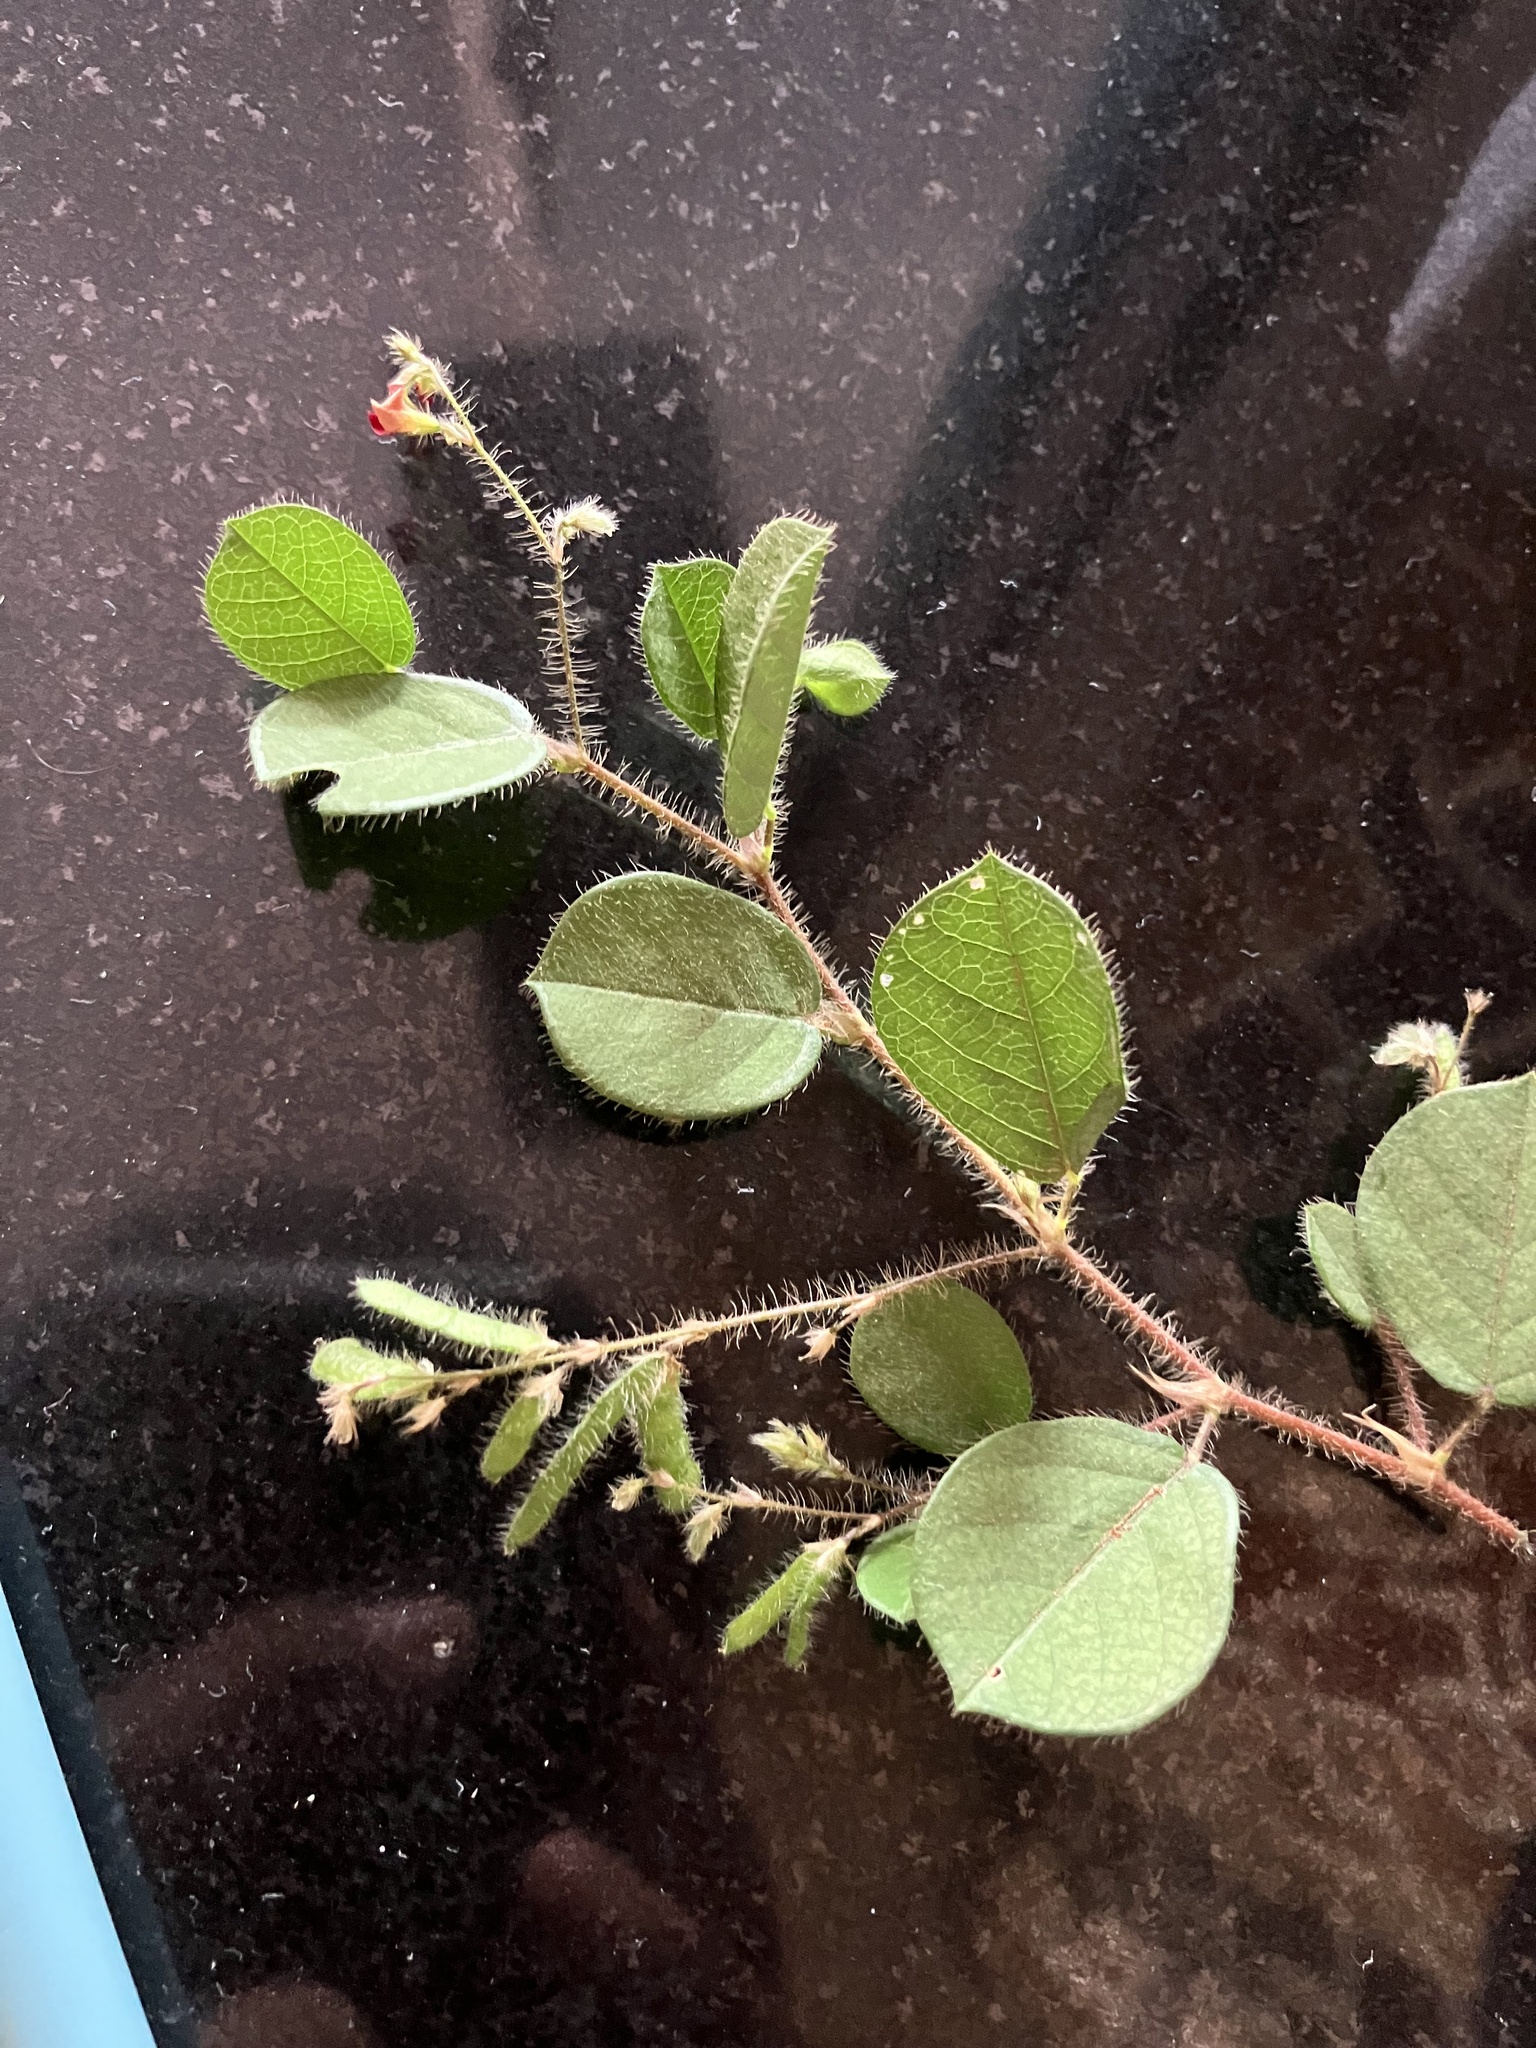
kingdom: Plantae
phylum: Tracheophyta
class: Magnoliopsida
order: Fabales
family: Fabaceae
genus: Alysicarpus
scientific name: Alysicarpus hamosus
